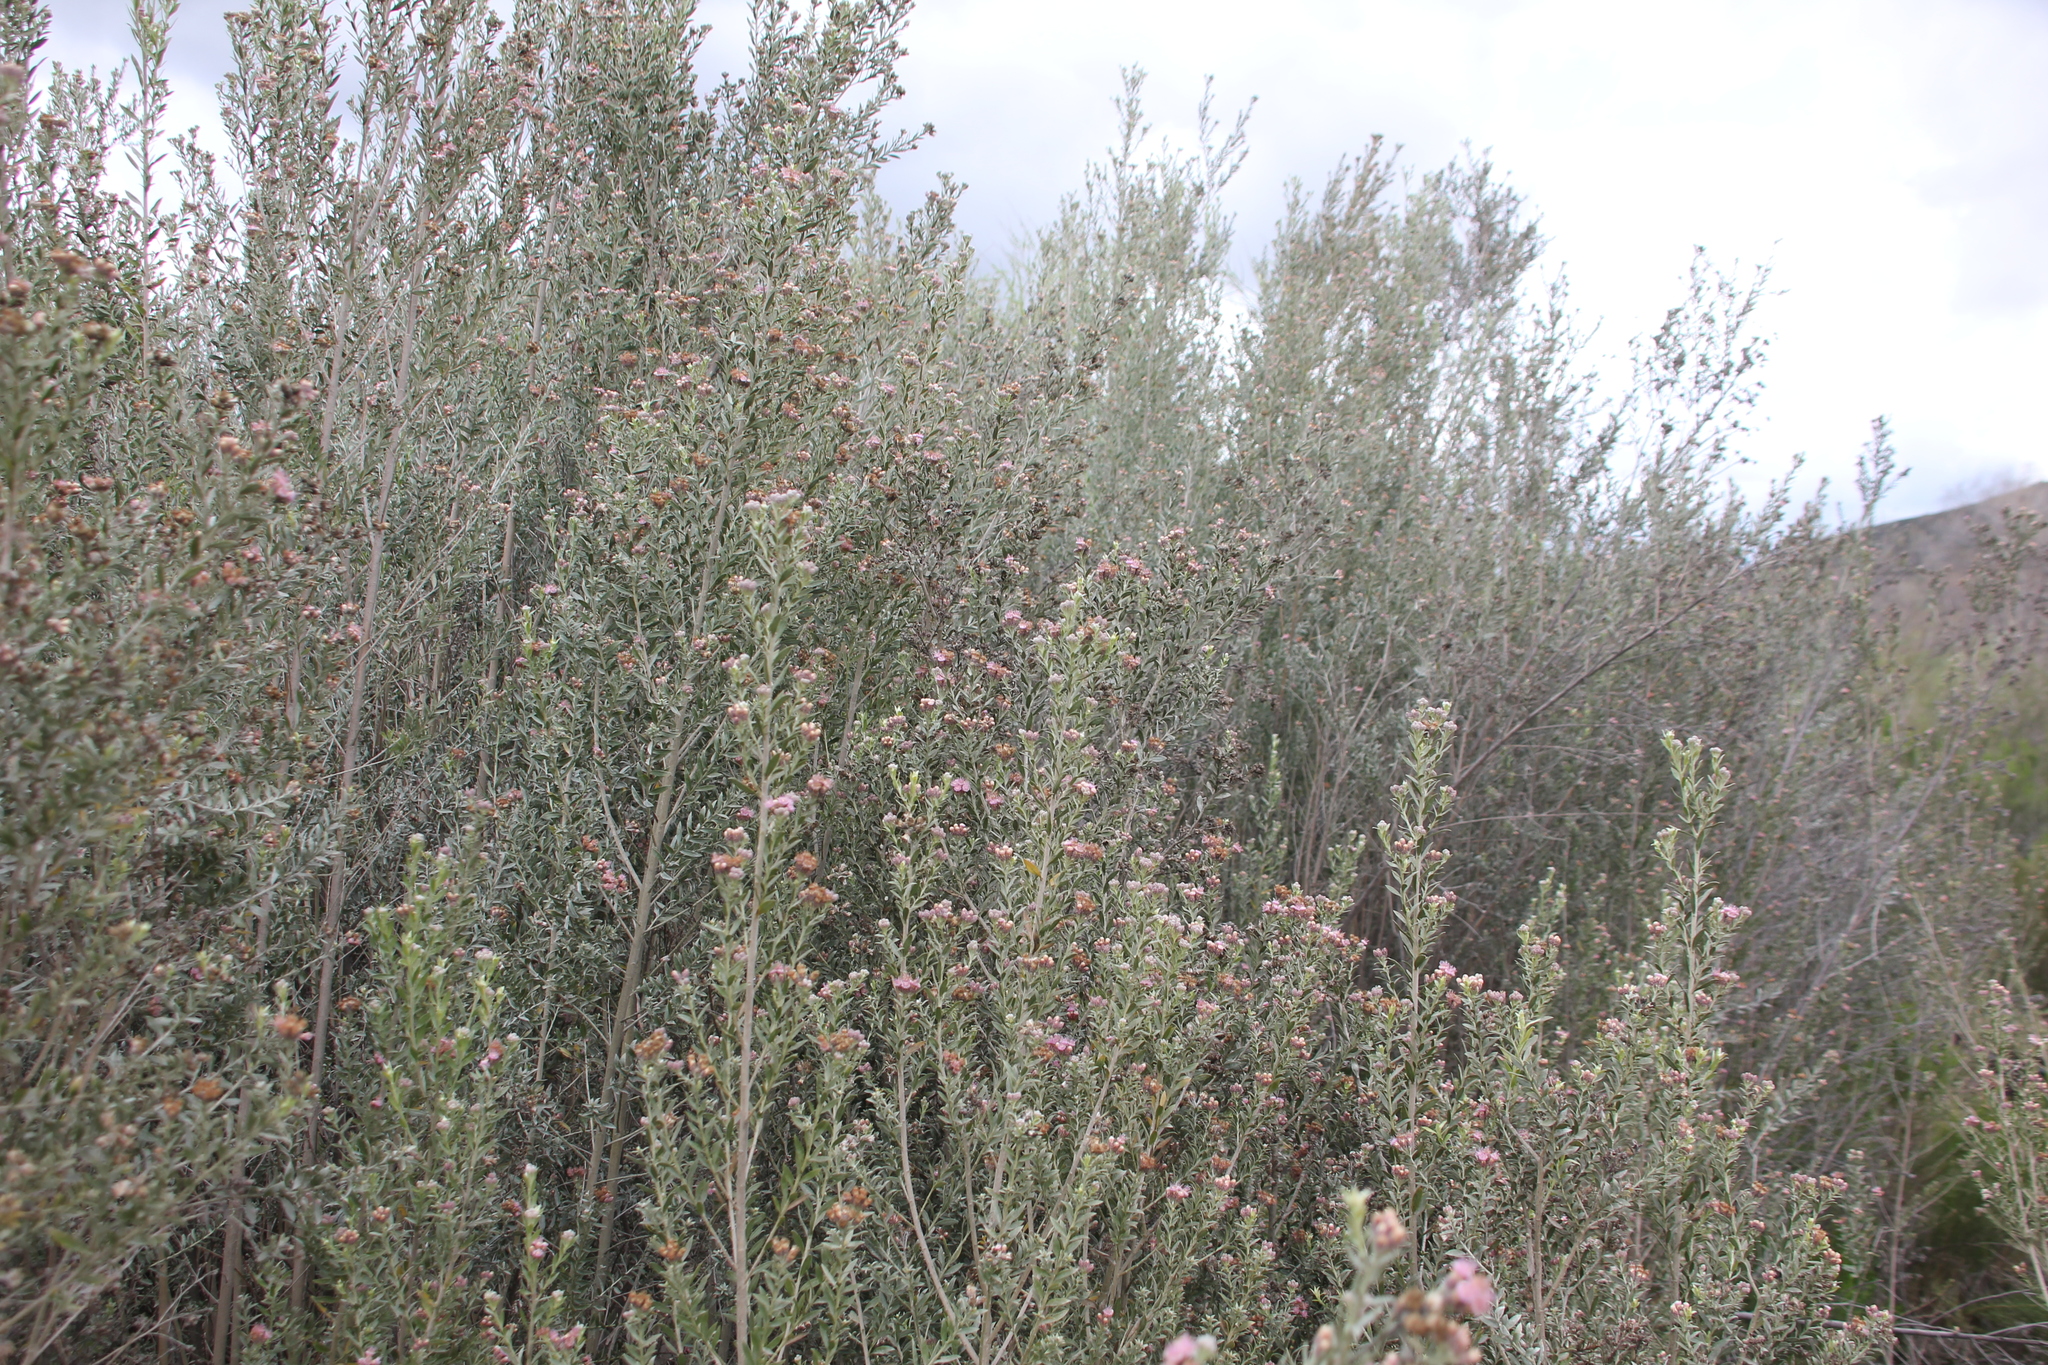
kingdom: Plantae
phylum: Tracheophyta
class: Magnoliopsida
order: Asterales
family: Asteraceae
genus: Pluchea
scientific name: Pluchea sericea
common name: Arrow-weed
